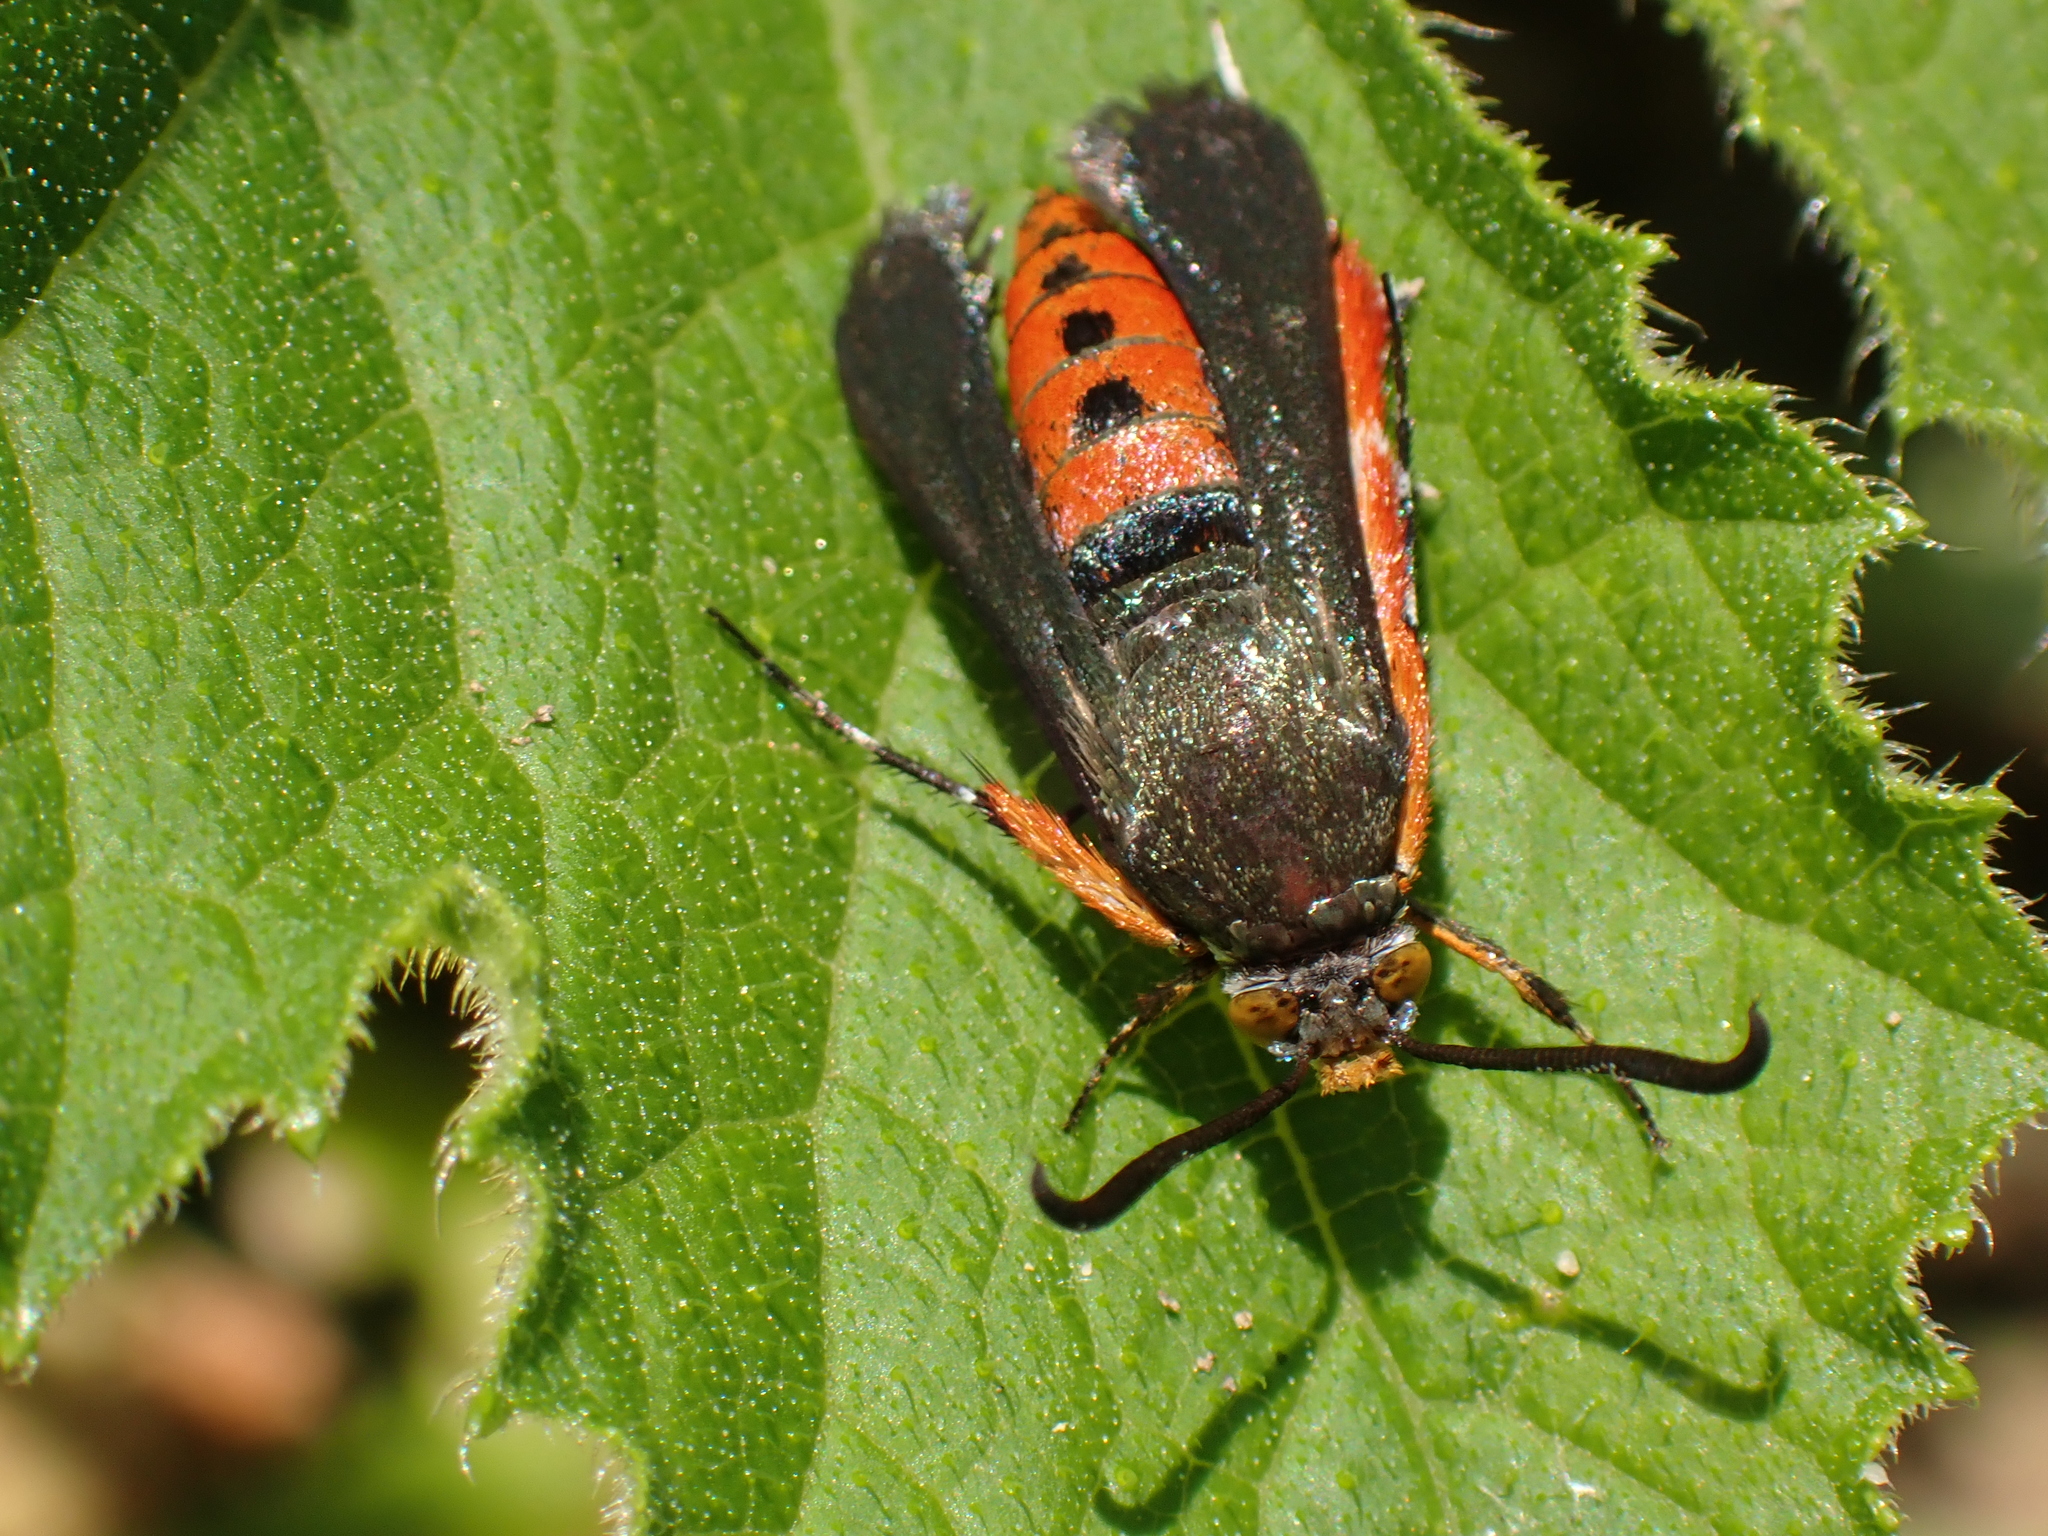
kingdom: Animalia
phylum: Arthropoda
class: Insecta
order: Lepidoptera
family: Sesiidae
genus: Eichlinia
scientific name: Eichlinia cucurbitae
